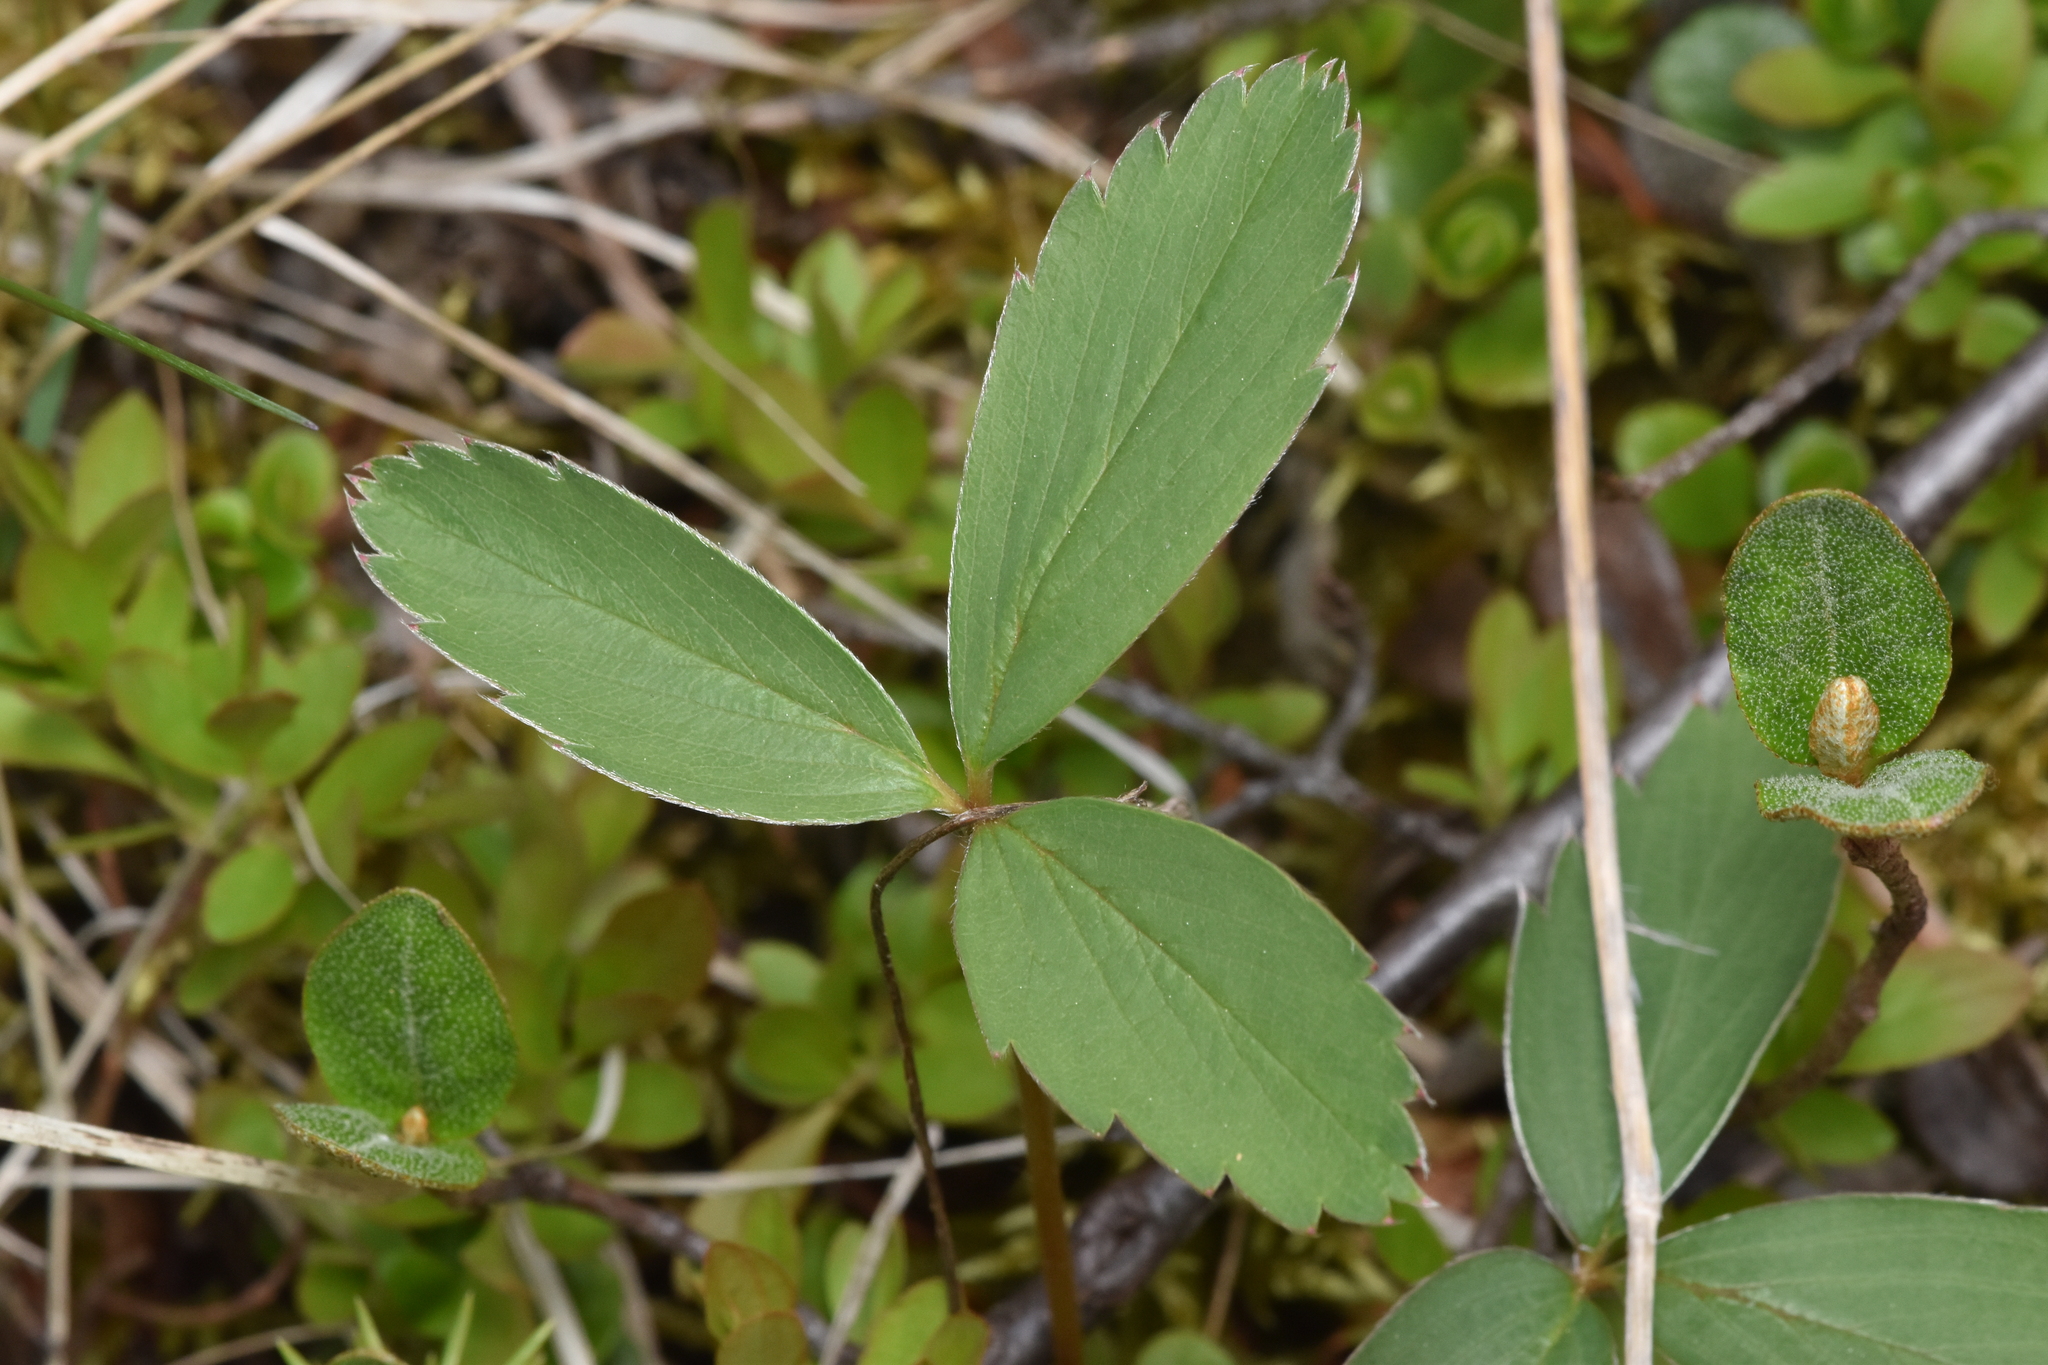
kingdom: Plantae
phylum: Tracheophyta
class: Magnoliopsida
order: Rosales
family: Rosaceae
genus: Fragaria
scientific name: Fragaria virginiana
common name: Thickleaved wild strawberry
